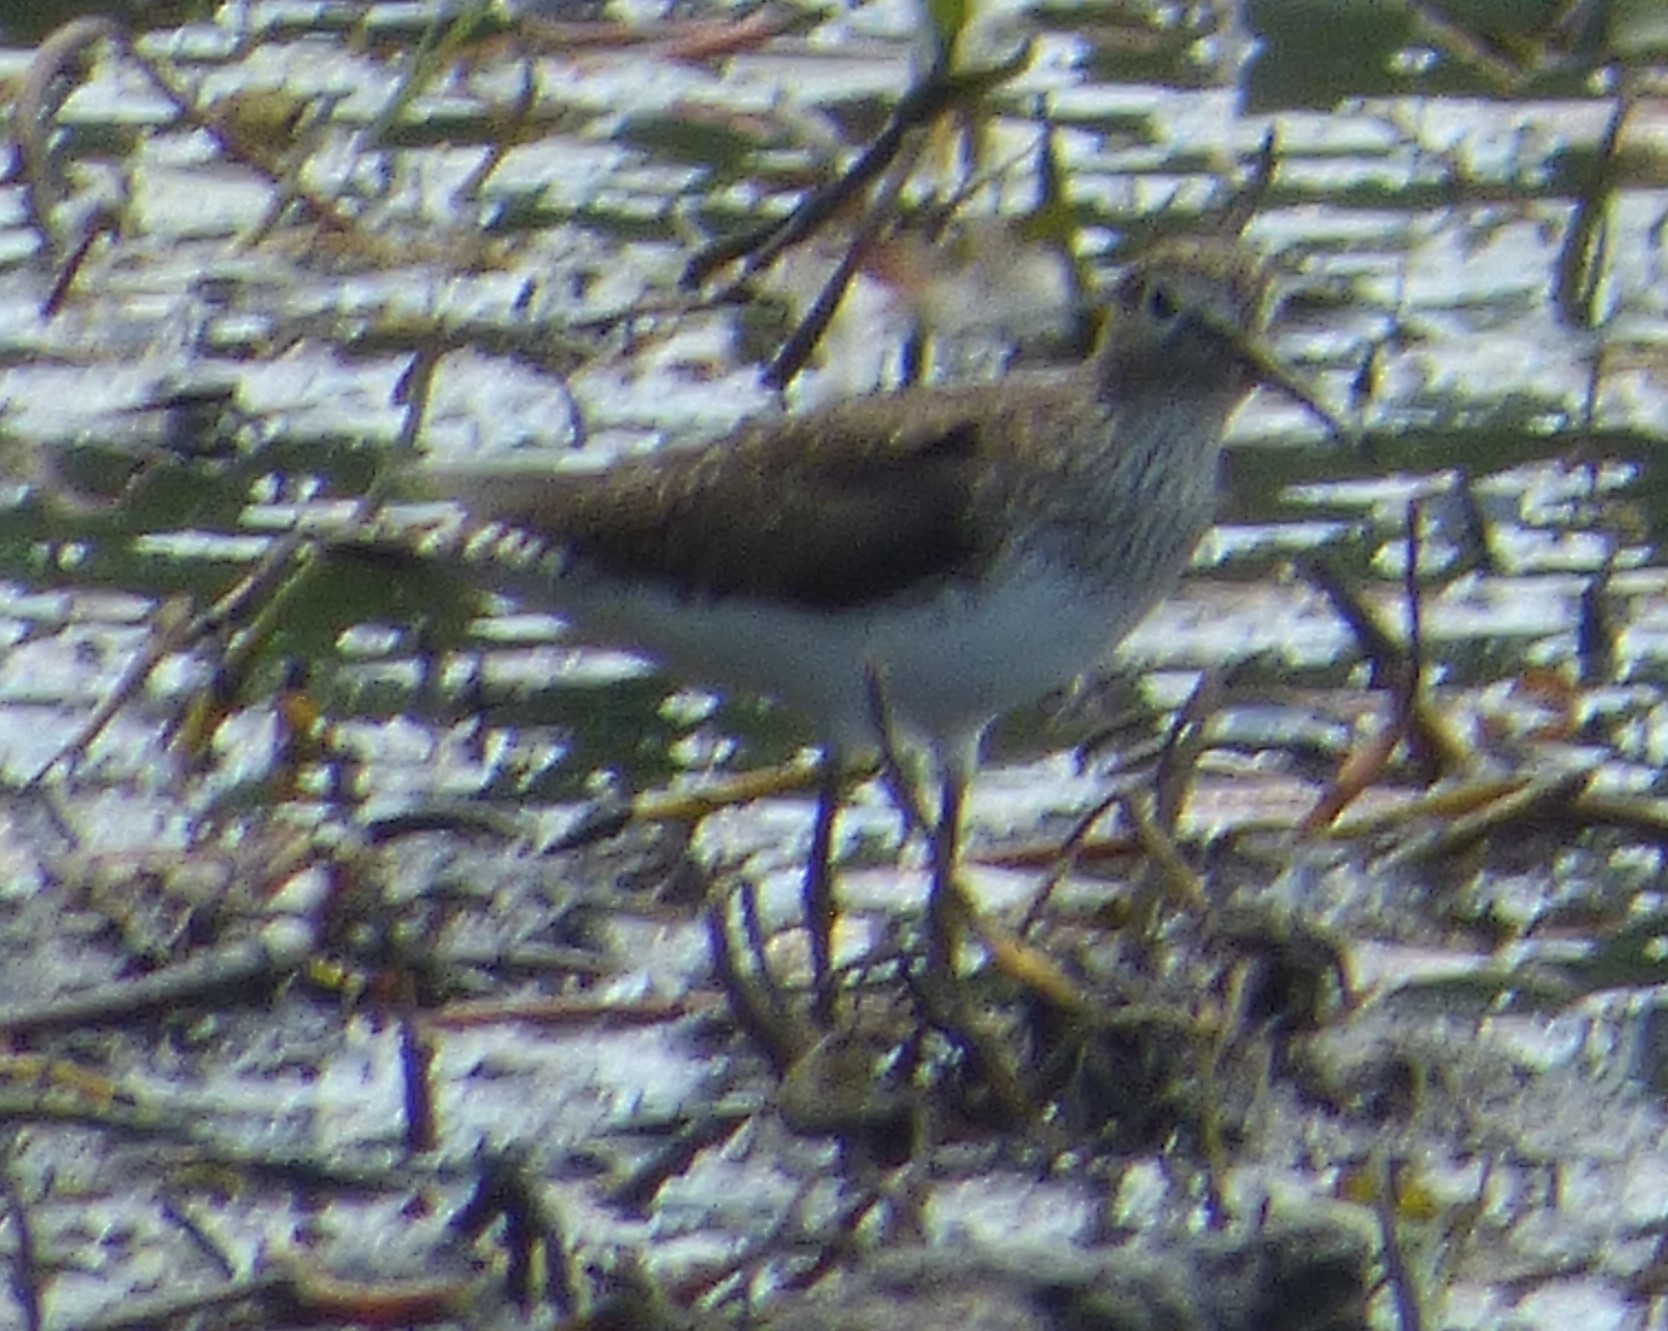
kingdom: Animalia
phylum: Chordata
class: Aves
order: Charadriiformes
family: Scolopacidae
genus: Tringa
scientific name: Tringa solitaria
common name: Solitary sandpiper
